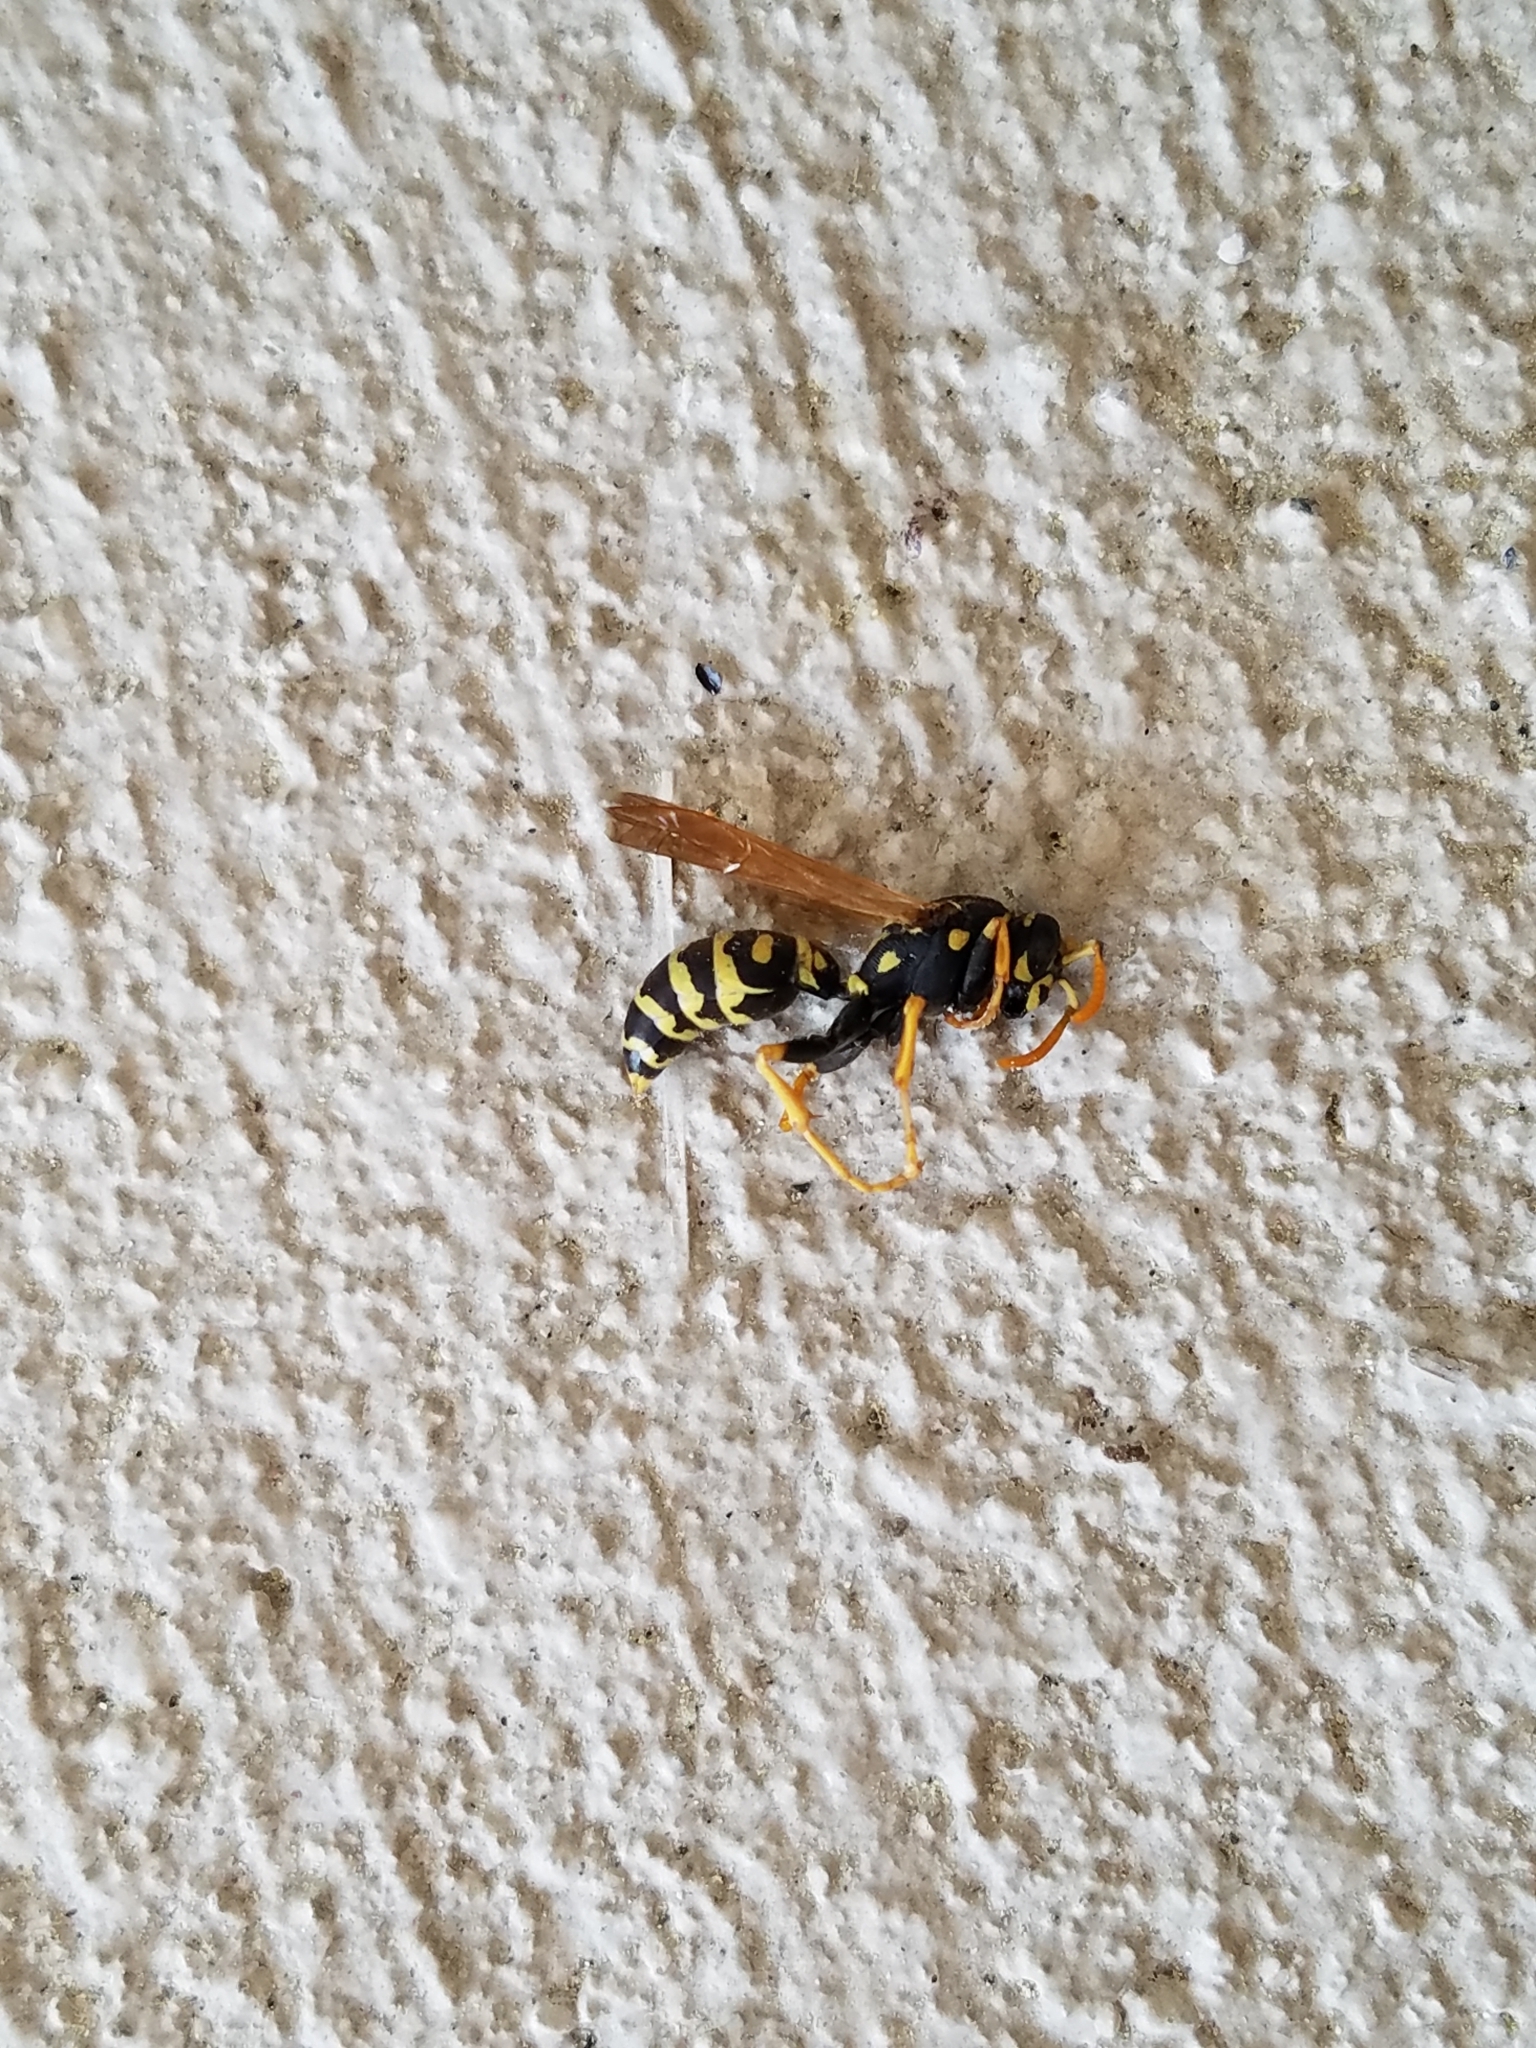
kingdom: Animalia
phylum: Arthropoda
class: Insecta
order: Hymenoptera
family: Eumenidae
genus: Polistes
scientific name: Polistes dominula
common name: Paper wasp
